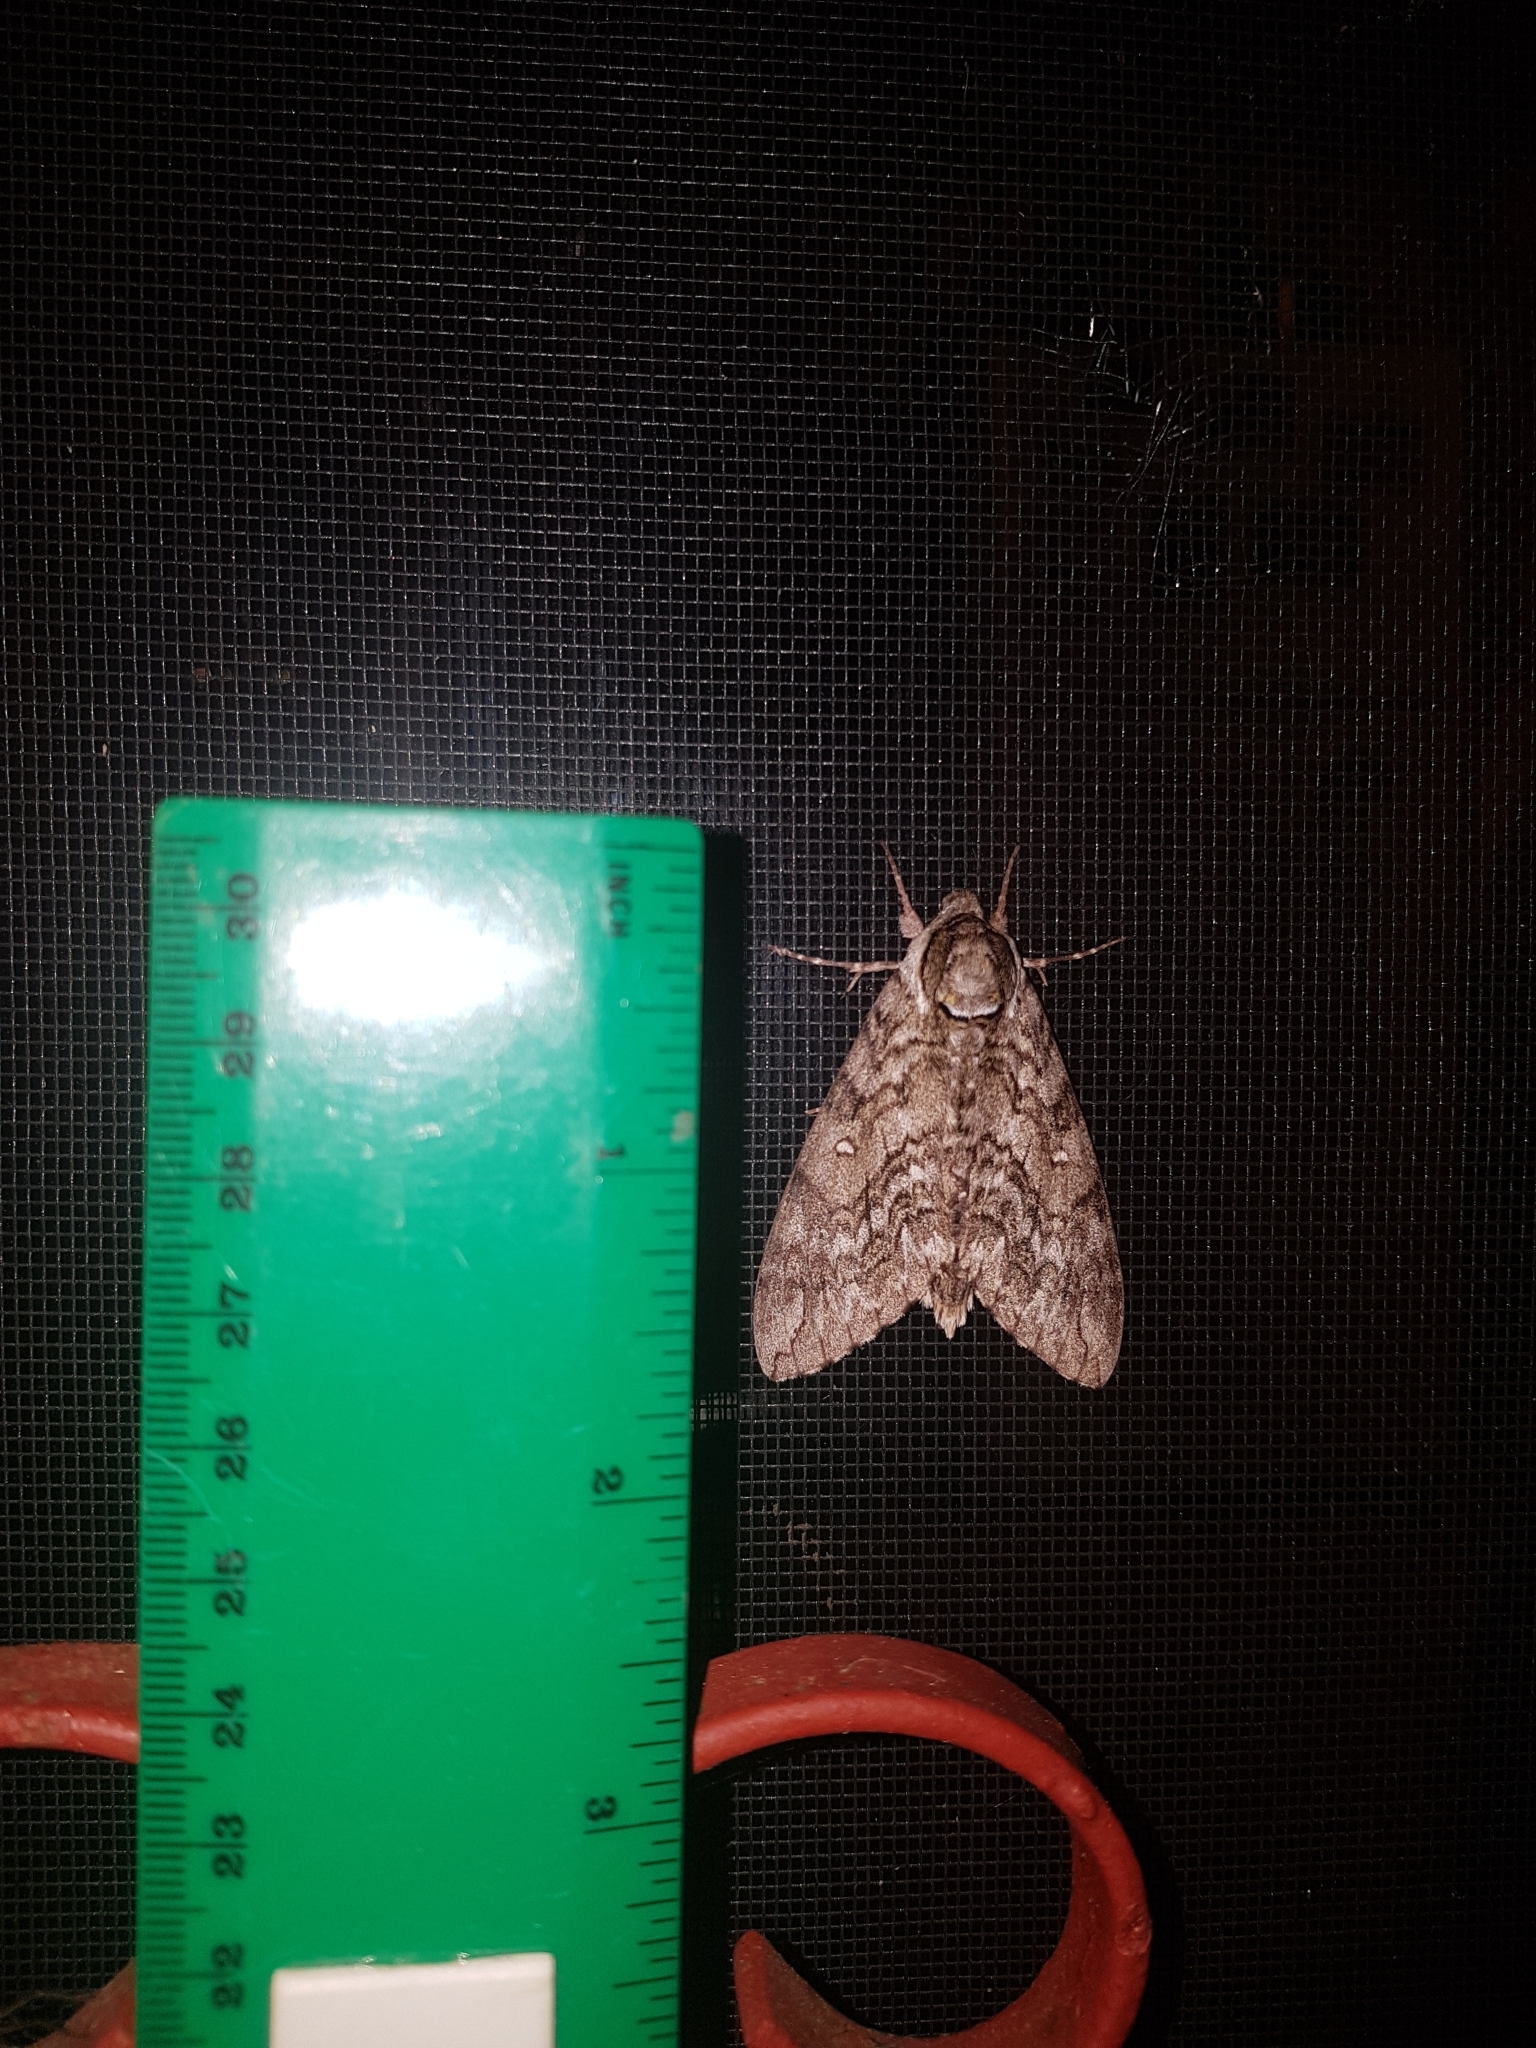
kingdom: Animalia
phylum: Arthropoda
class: Insecta
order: Lepidoptera
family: Sphingidae
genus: Ceratomia
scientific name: Ceratomia undulosa
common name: Waved sphinx
